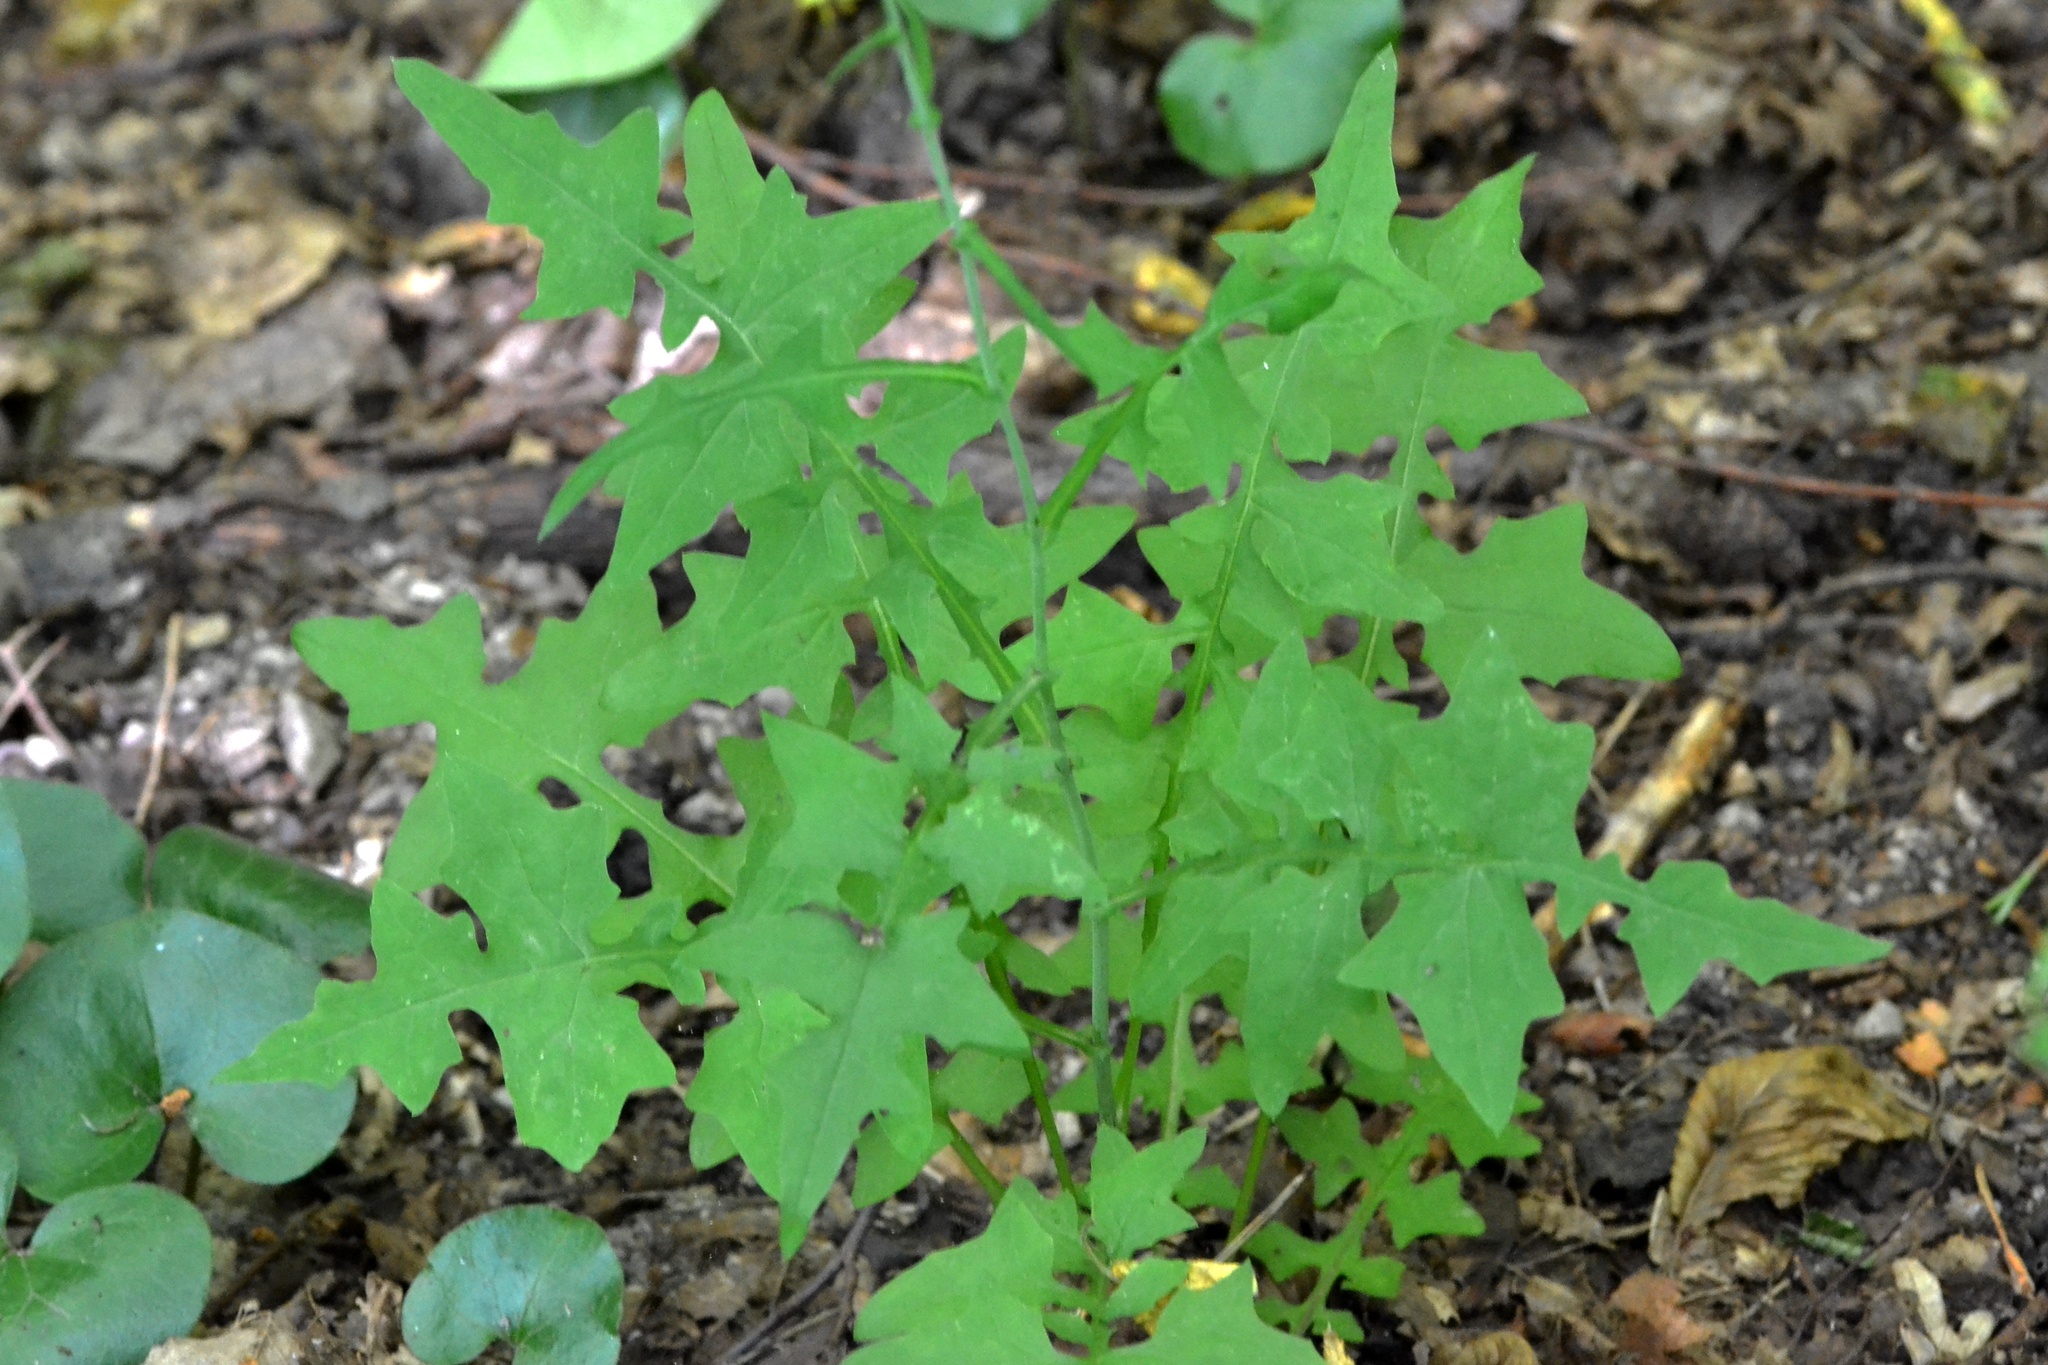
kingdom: Plantae
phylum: Tracheophyta
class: Magnoliopsida
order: Asterales
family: Asteraceae
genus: Mycelis
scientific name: Mycelis muralis
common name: Wall lettuce
